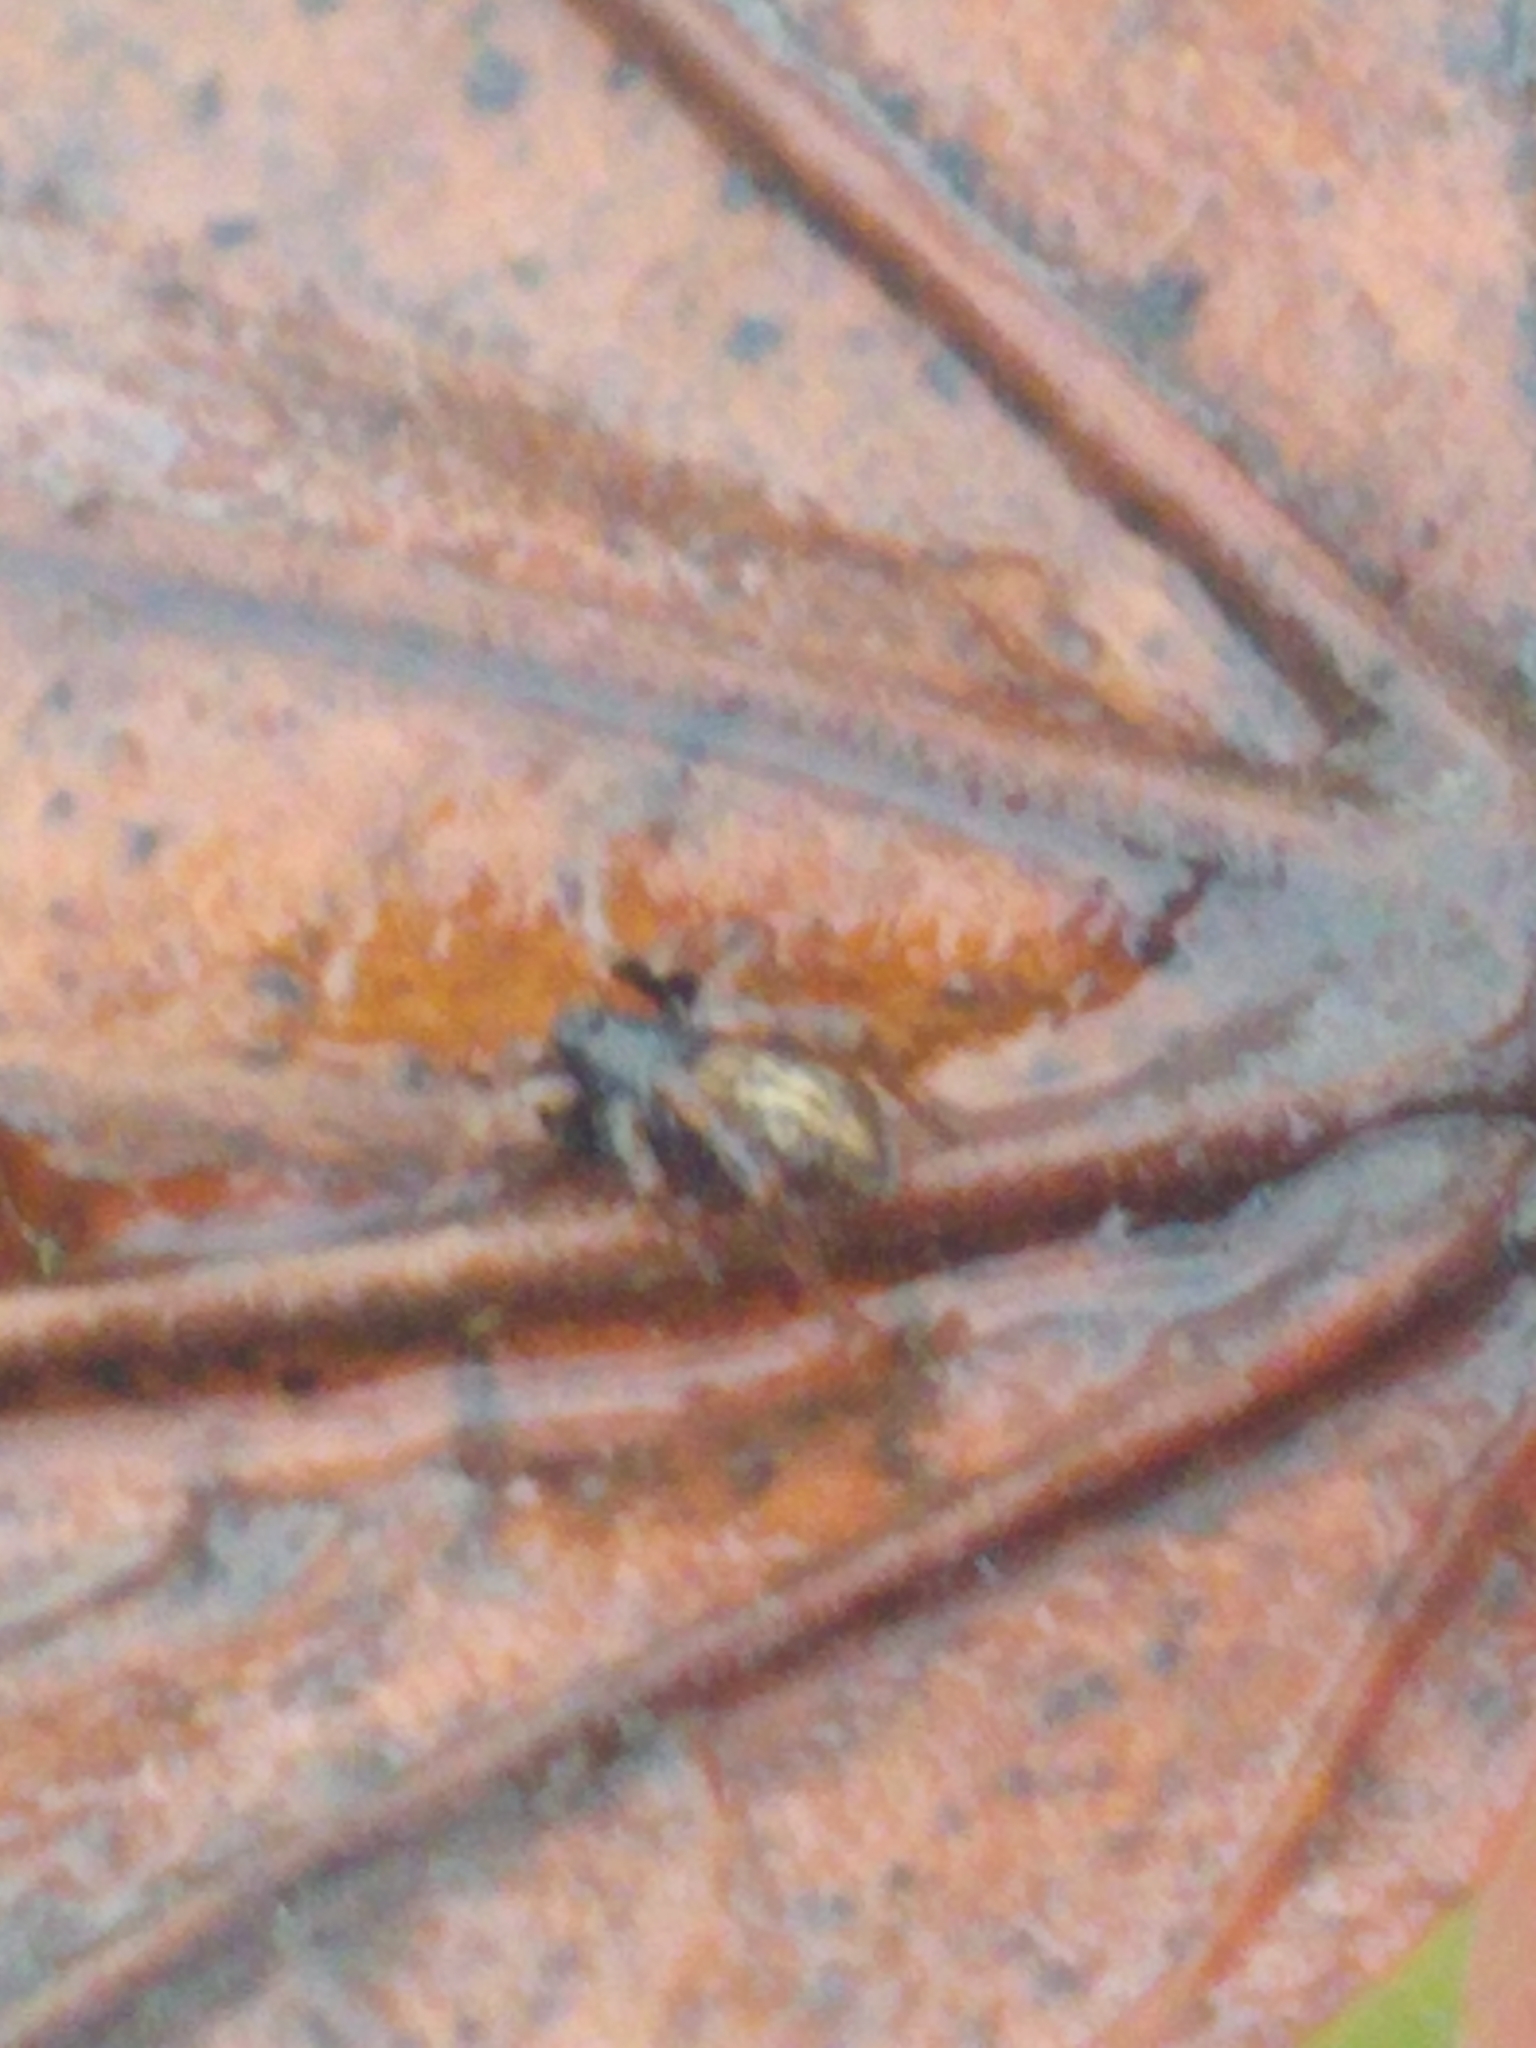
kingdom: Animalia
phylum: Arthropoda
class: Arachnida
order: Araneae
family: Lycosidae
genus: Allocosa
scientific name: Allocosa funerea
